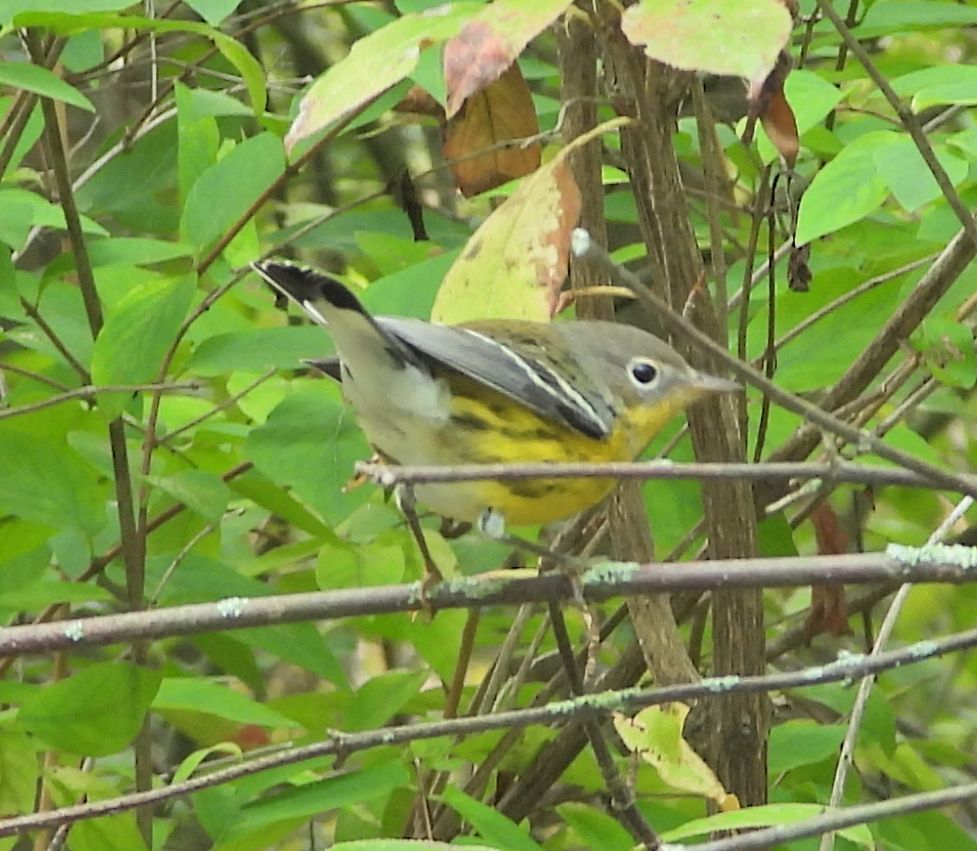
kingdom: Animalia
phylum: Chordata
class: Aves
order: Passeriformes
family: Parulidae
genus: Setophaga
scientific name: Setophaga magnolia
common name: Magnolia warbler
